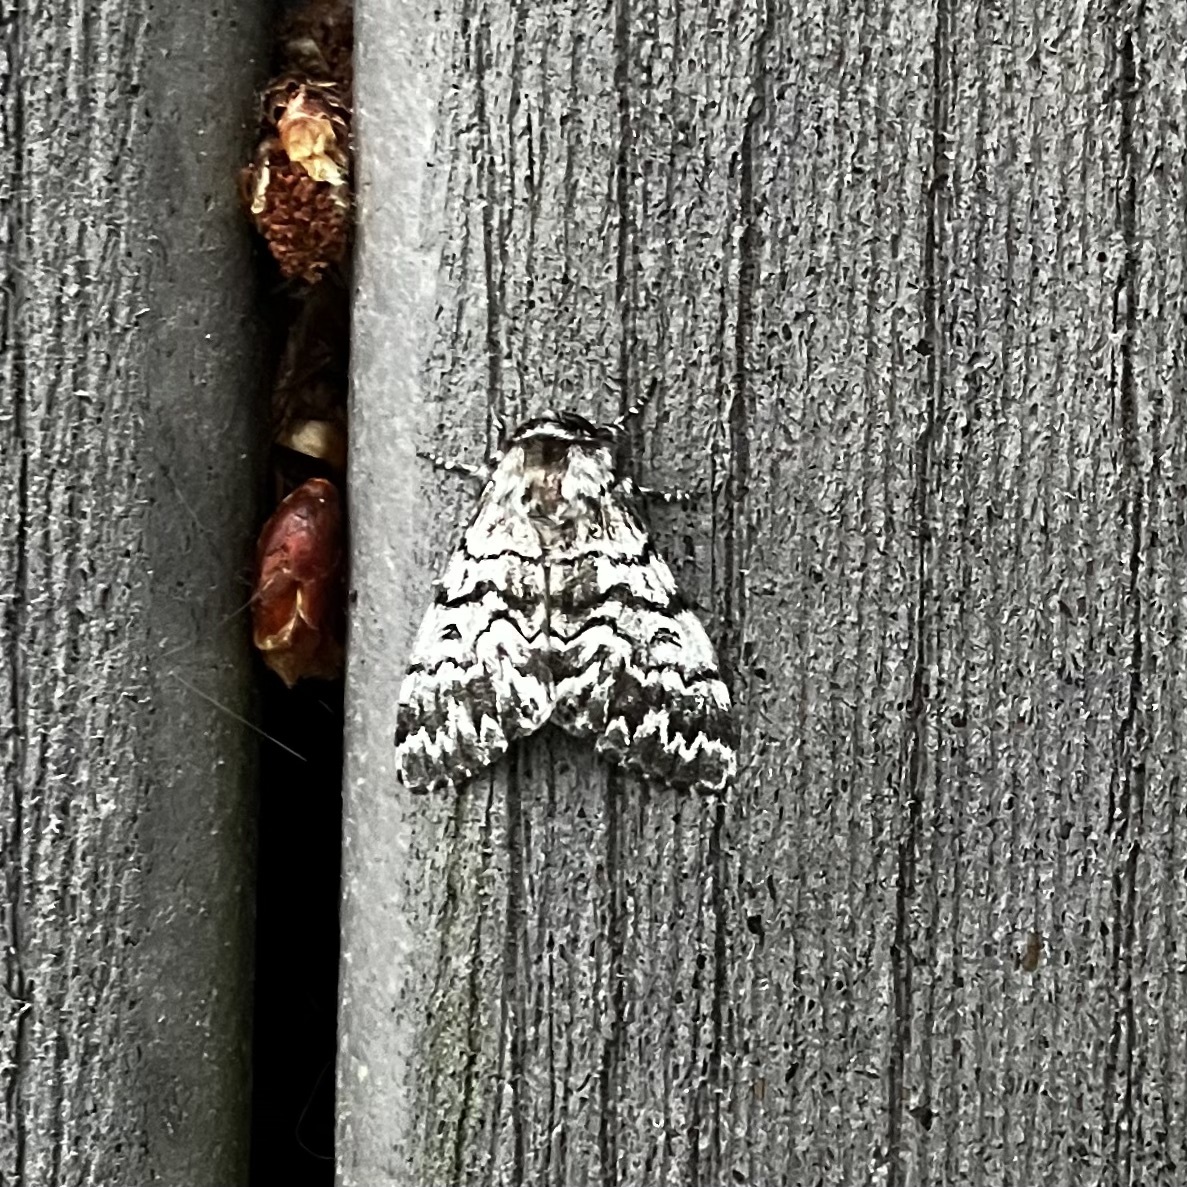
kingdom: Animalia
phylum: Arthropoda
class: Insecta
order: Lepidoptera
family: Noctuidae
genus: Panthea
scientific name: Panthea virginarius
